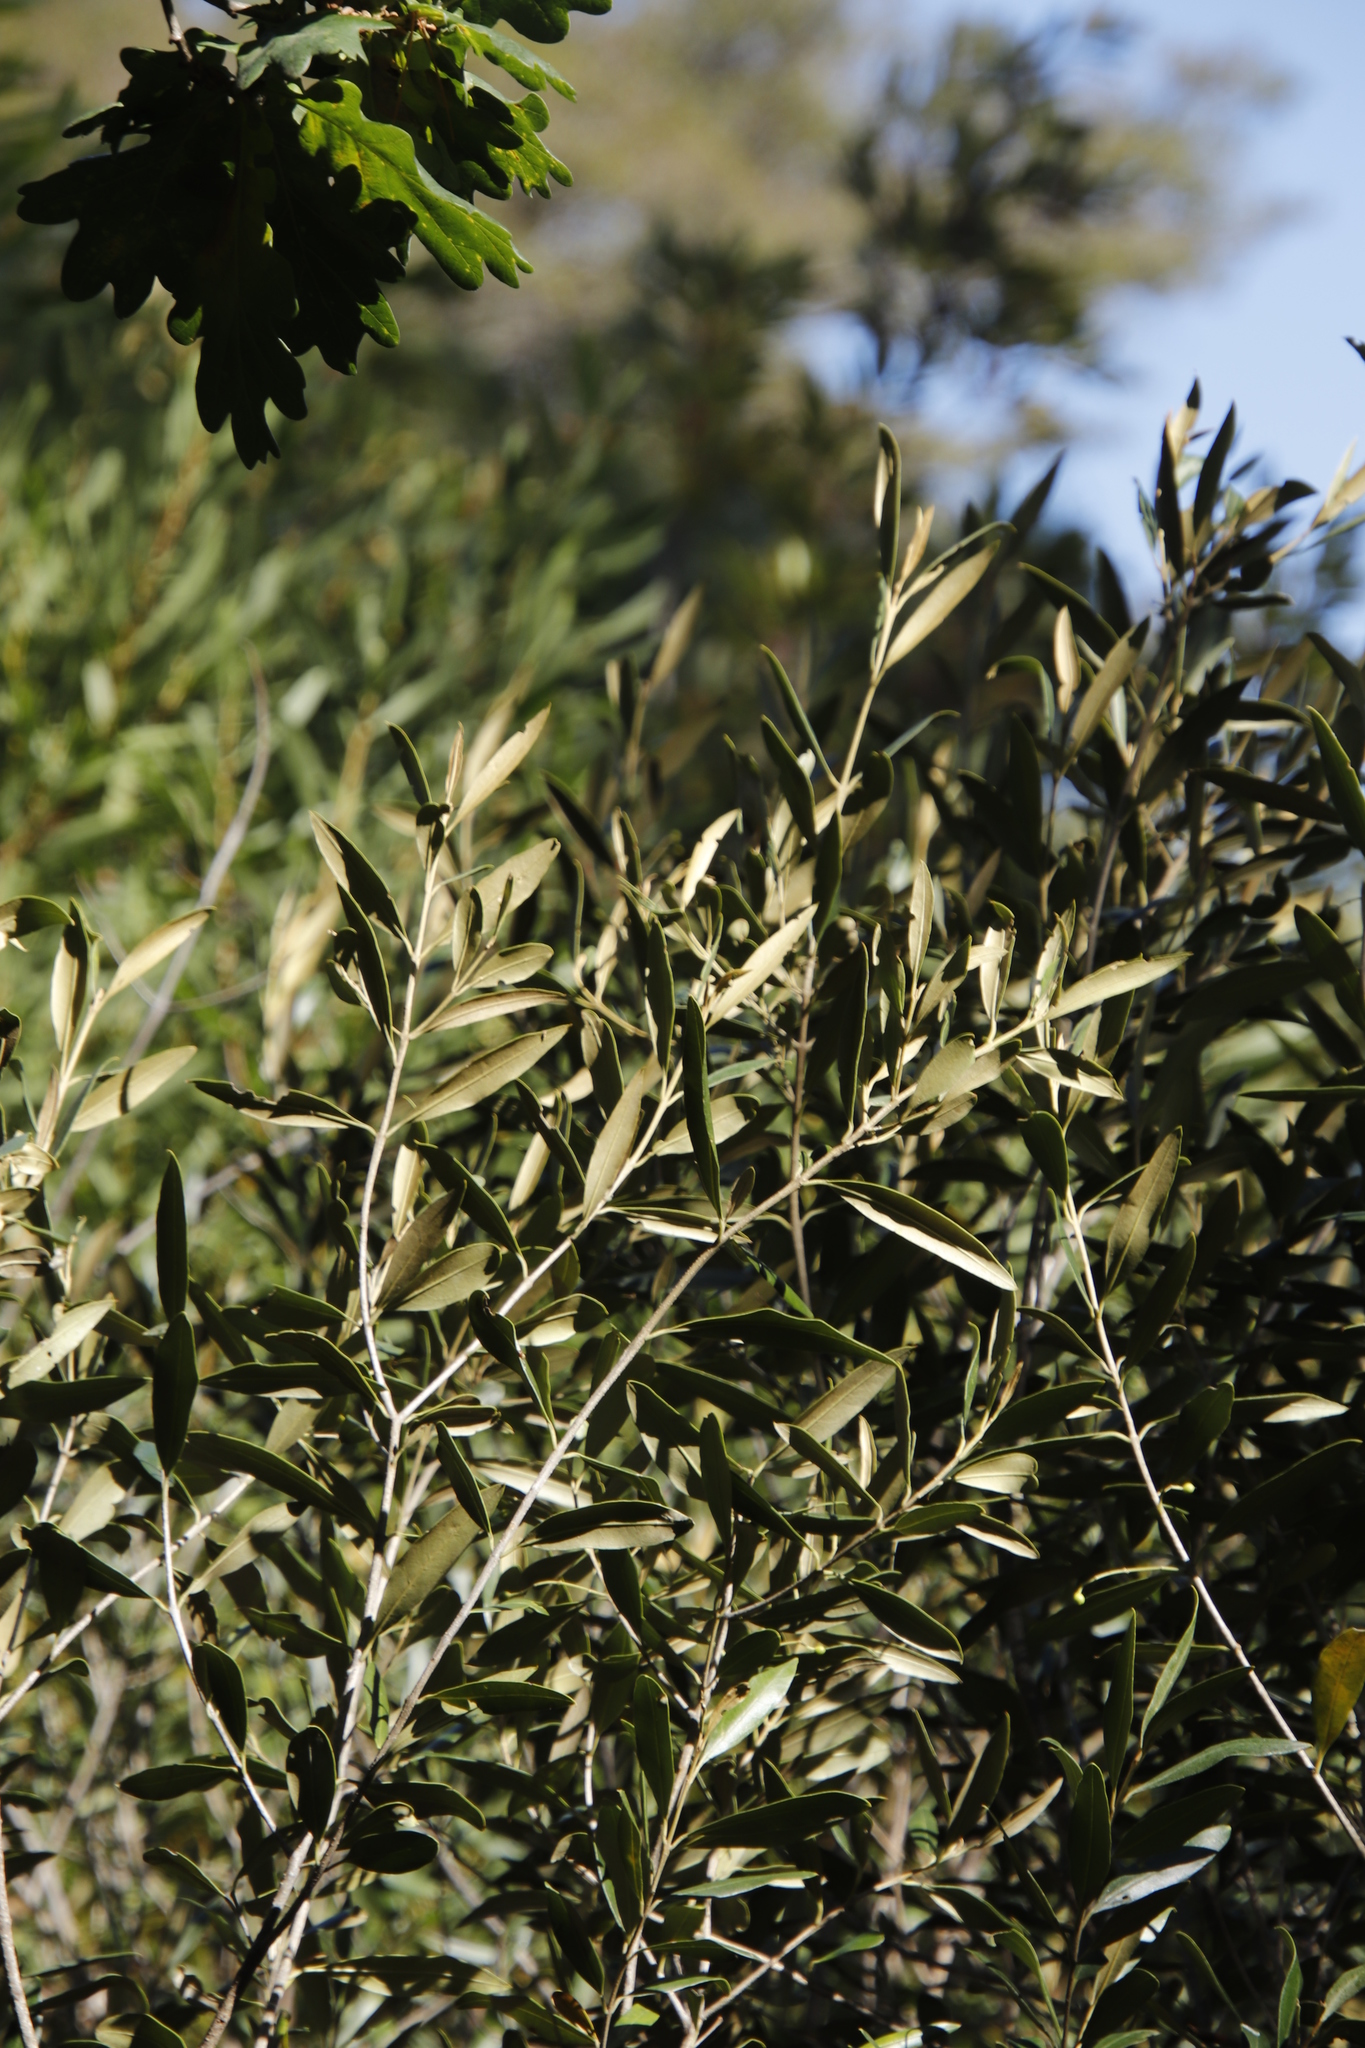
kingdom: Plantae
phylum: Tracheophyta
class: Magnoliopsida
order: Lamiales
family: Oleaceae
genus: Olea
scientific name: Olea europaea
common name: Olive
